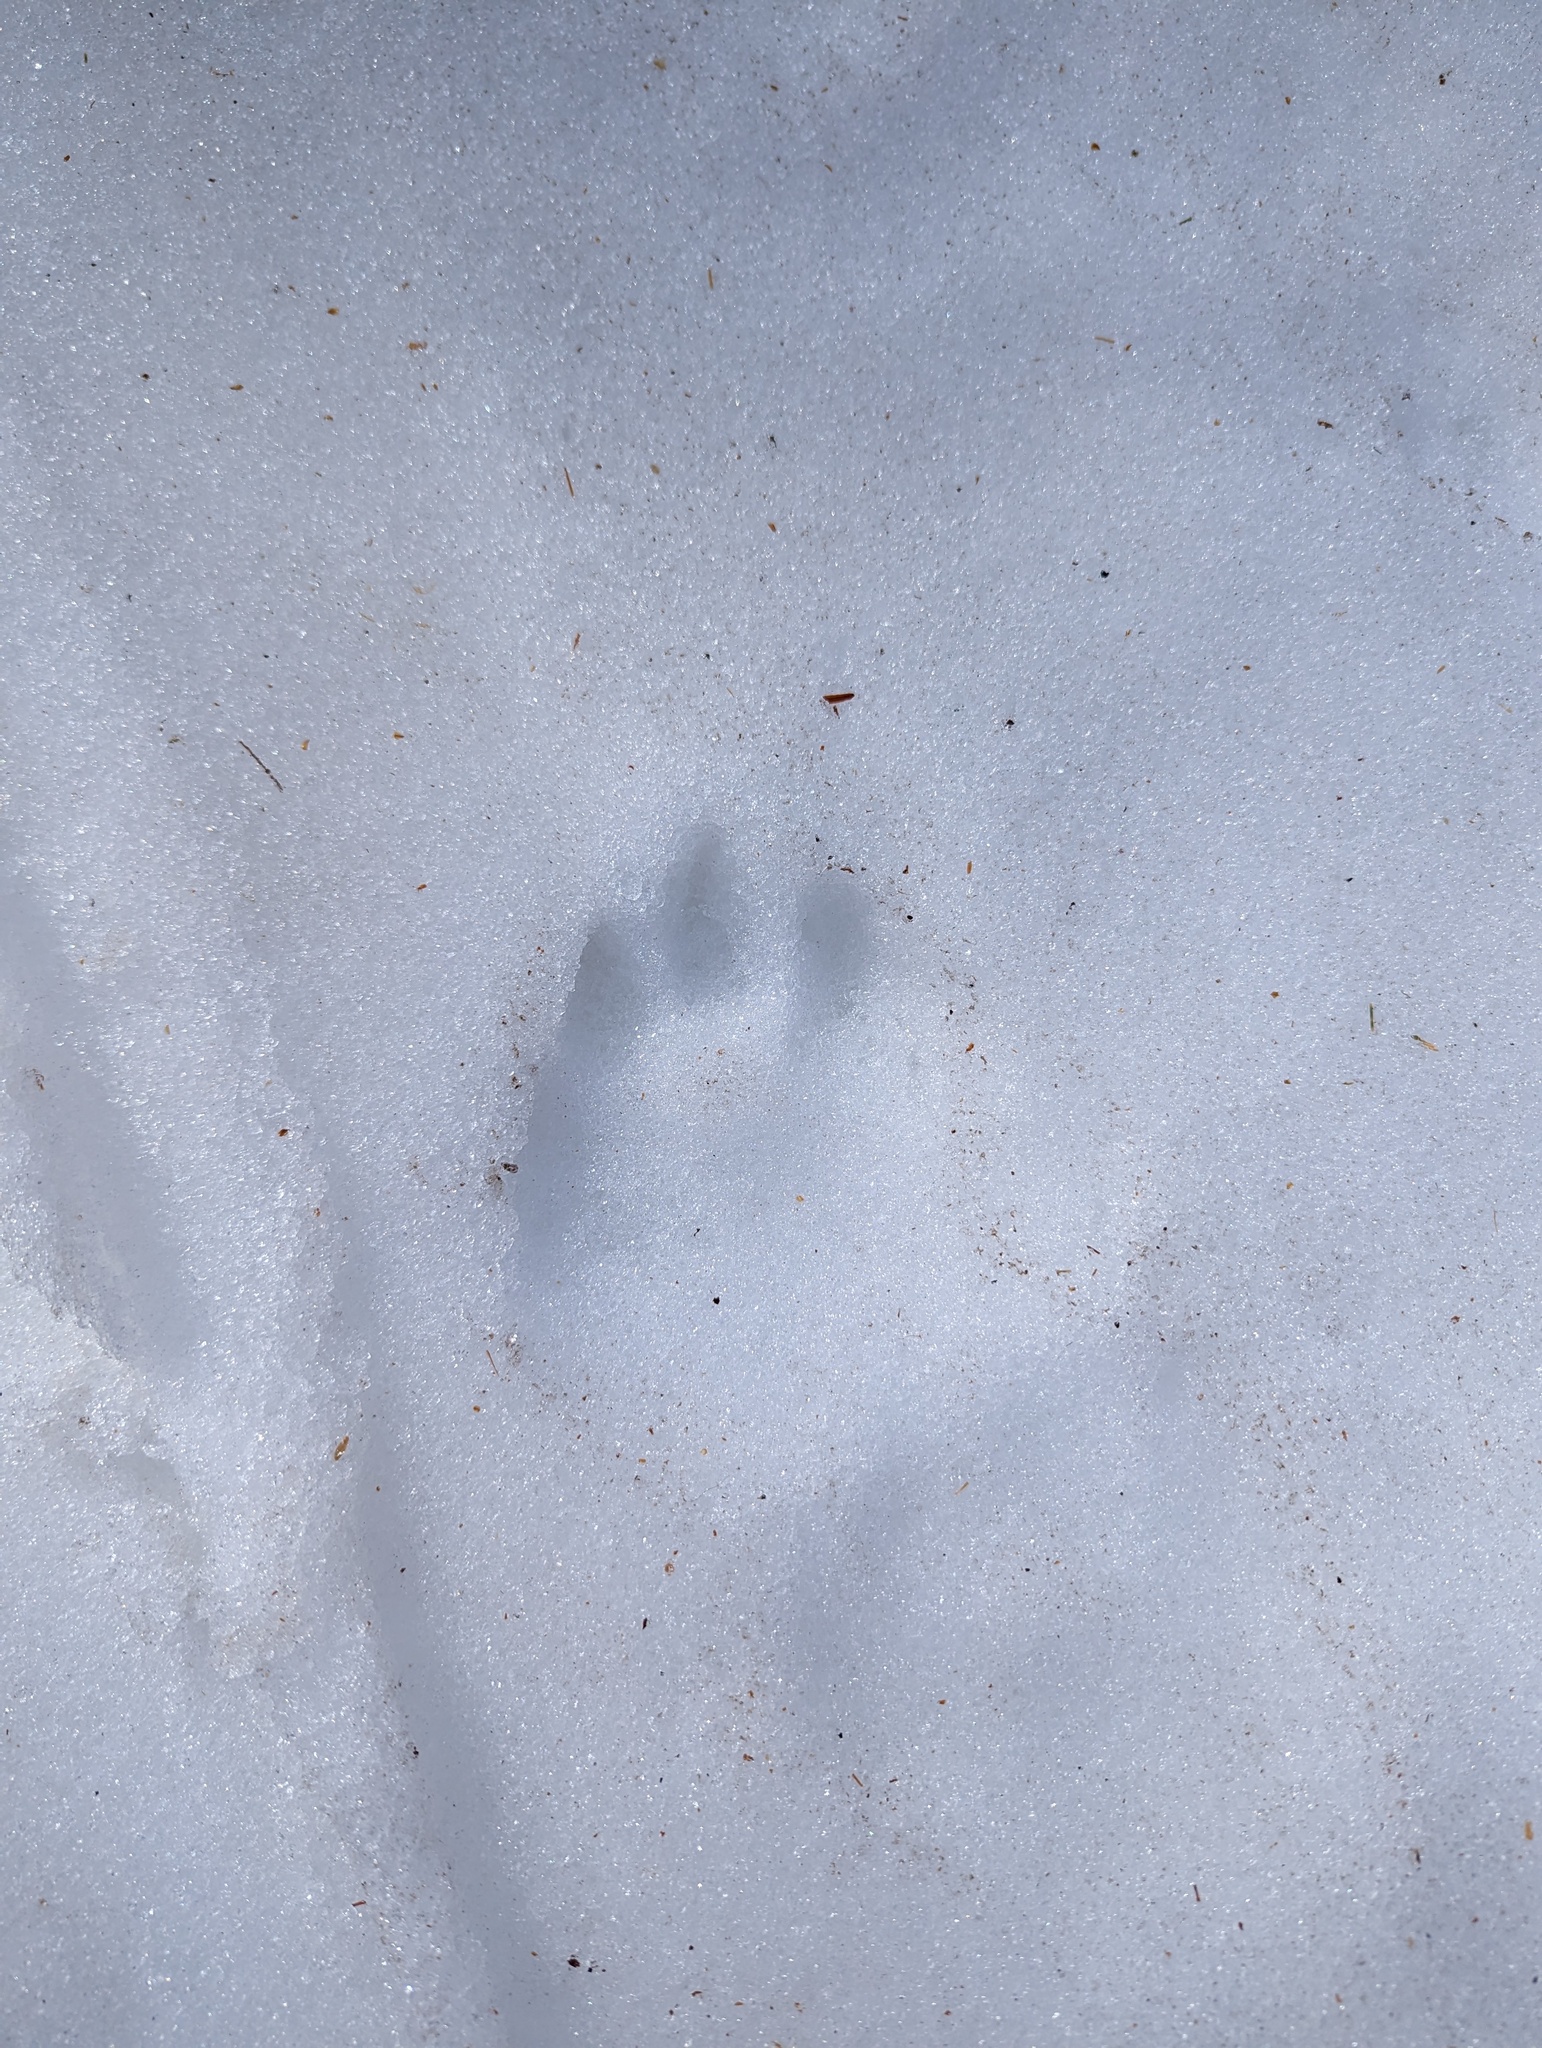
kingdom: Animalia
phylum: Chordata
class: Mammalia
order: Carnivora
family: Ursidae
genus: Ursus
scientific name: Ursus americanus
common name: American black bear
